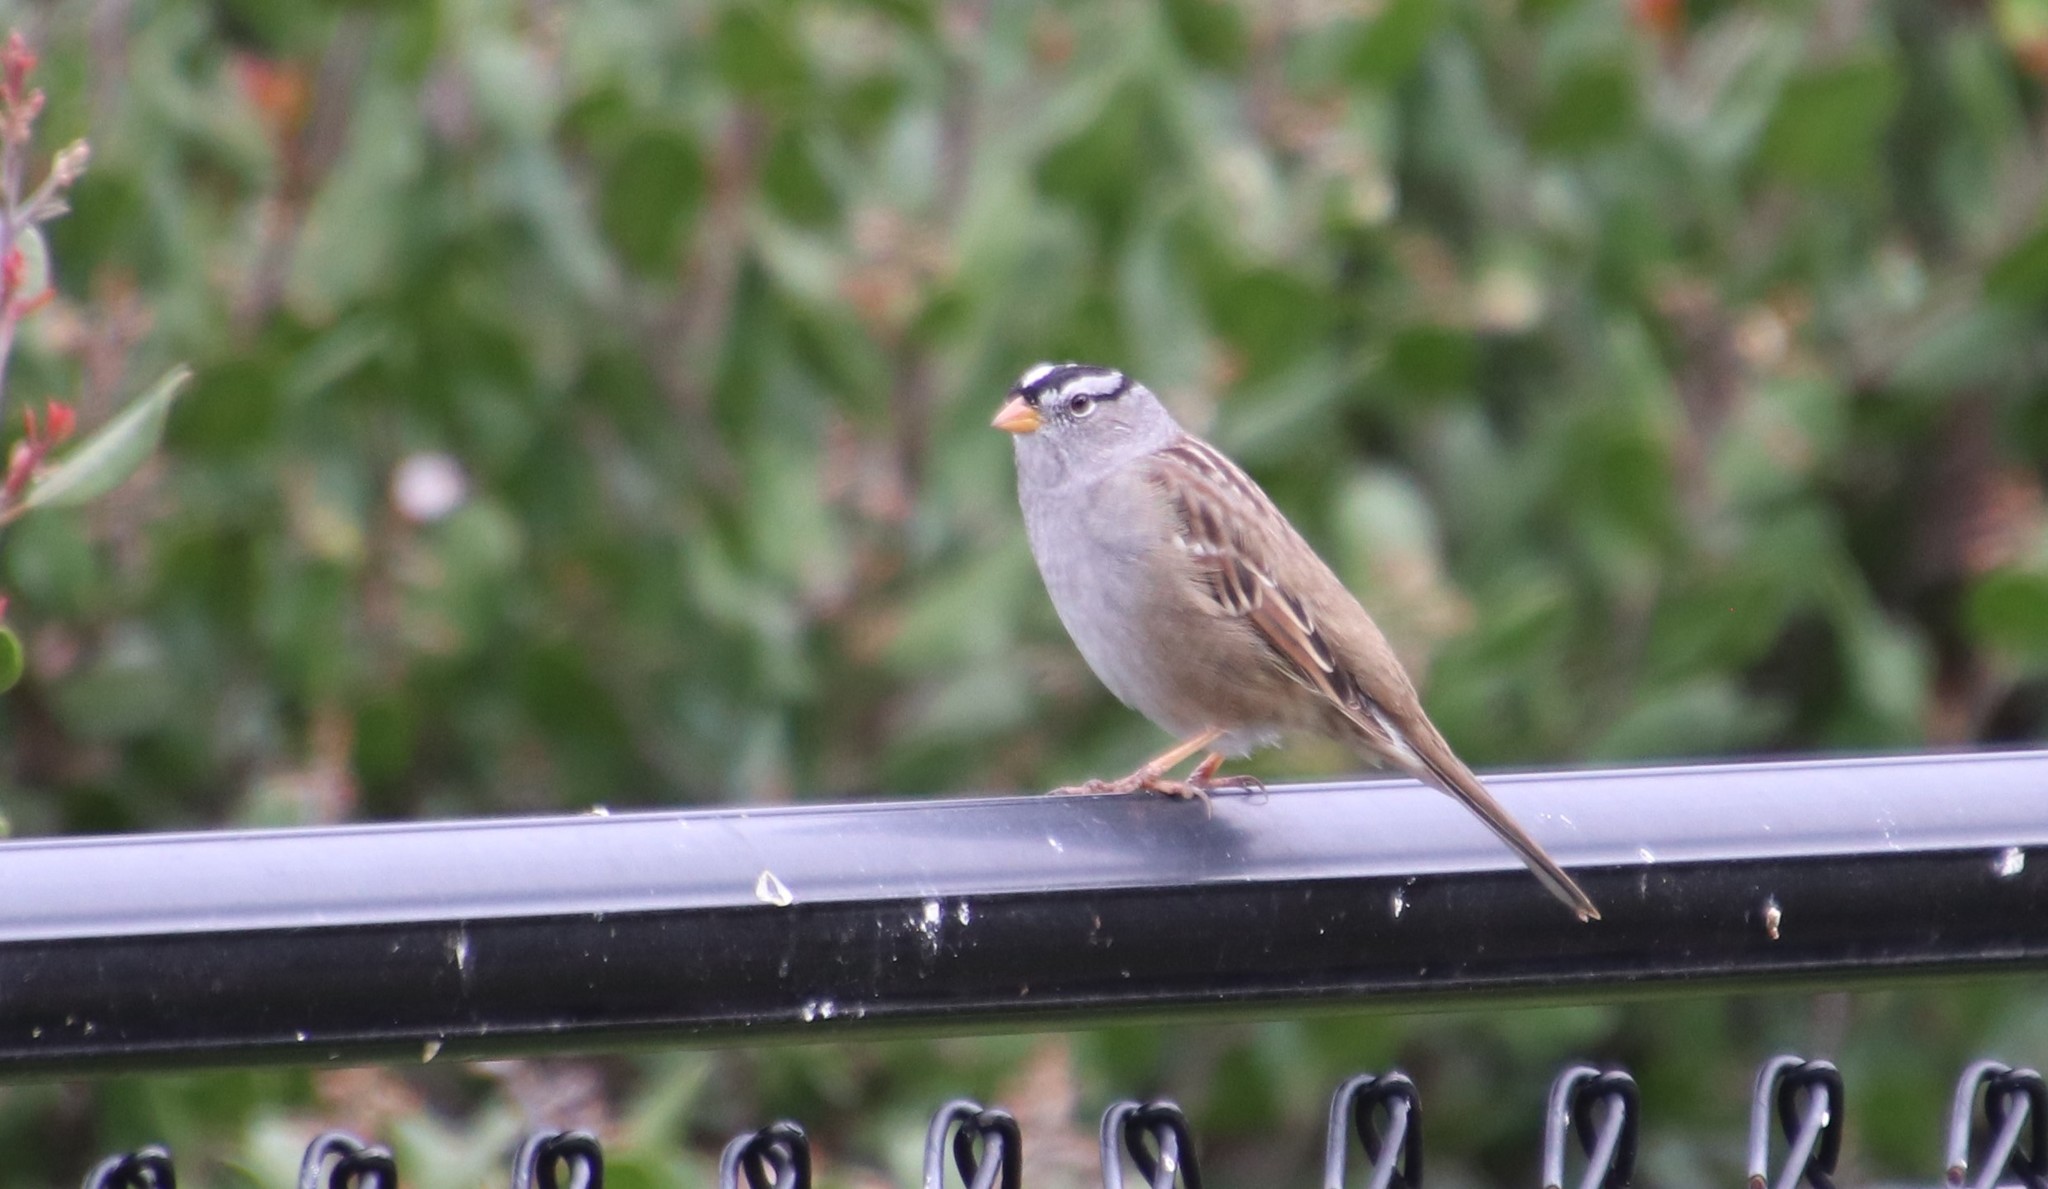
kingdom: Animalia
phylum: Chordata
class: Aves
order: Passeriformes
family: Passerellidae
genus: Zonotrichia
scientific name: Zonotrichia leucophrys
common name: White-crowned sparrow
